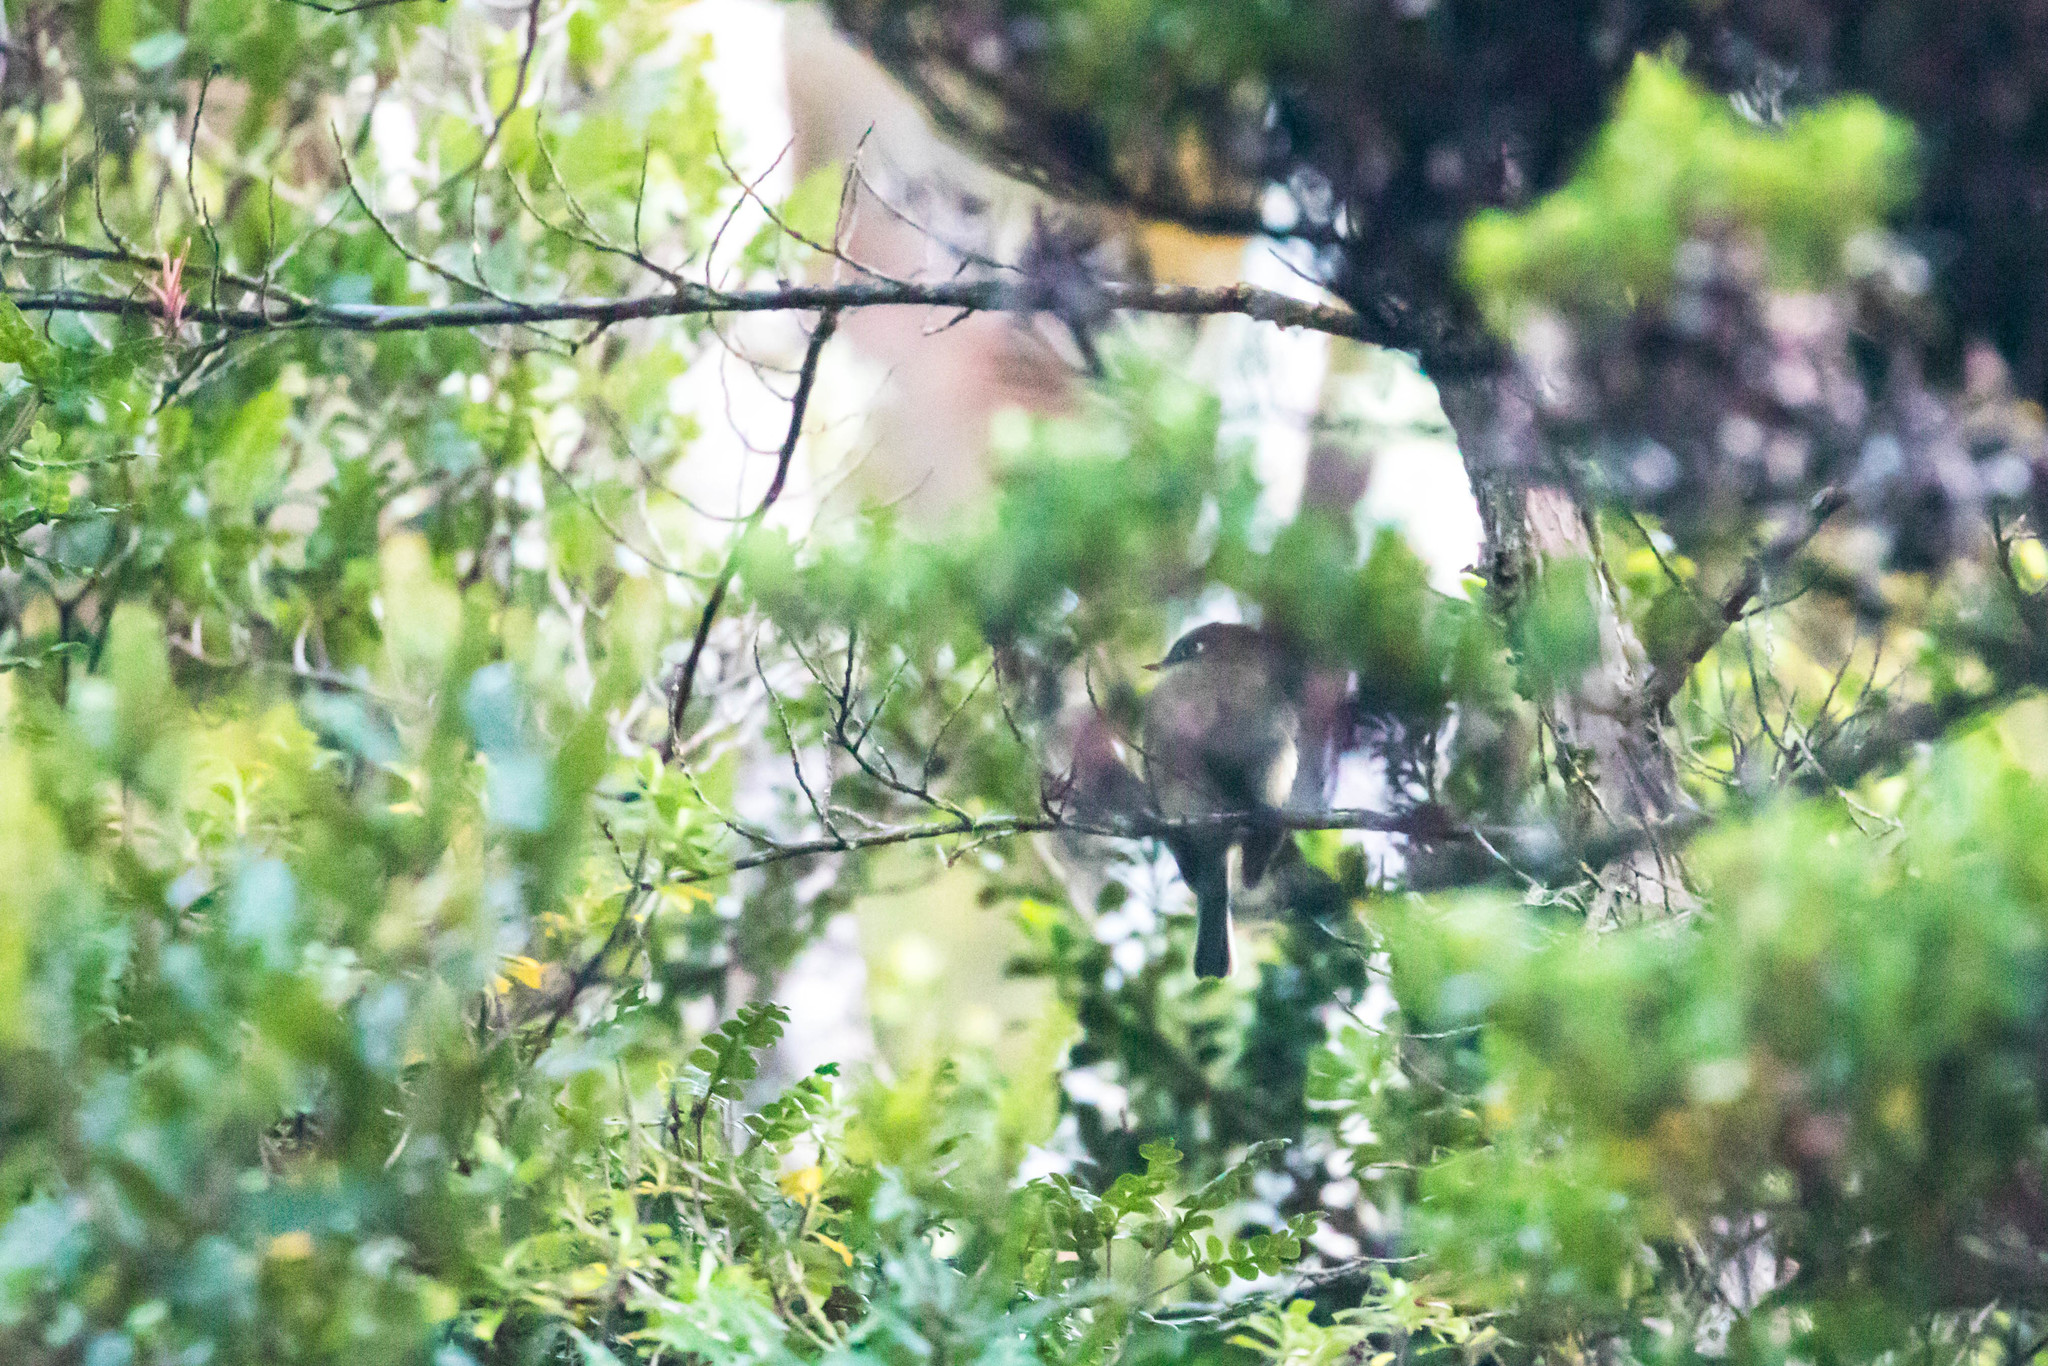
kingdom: Animalia
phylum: Chordata
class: Aves
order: Passeriformes
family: Tyrannidae
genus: Empidonax
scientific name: Empidonax atriceps
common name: Black-capped flycatcher
